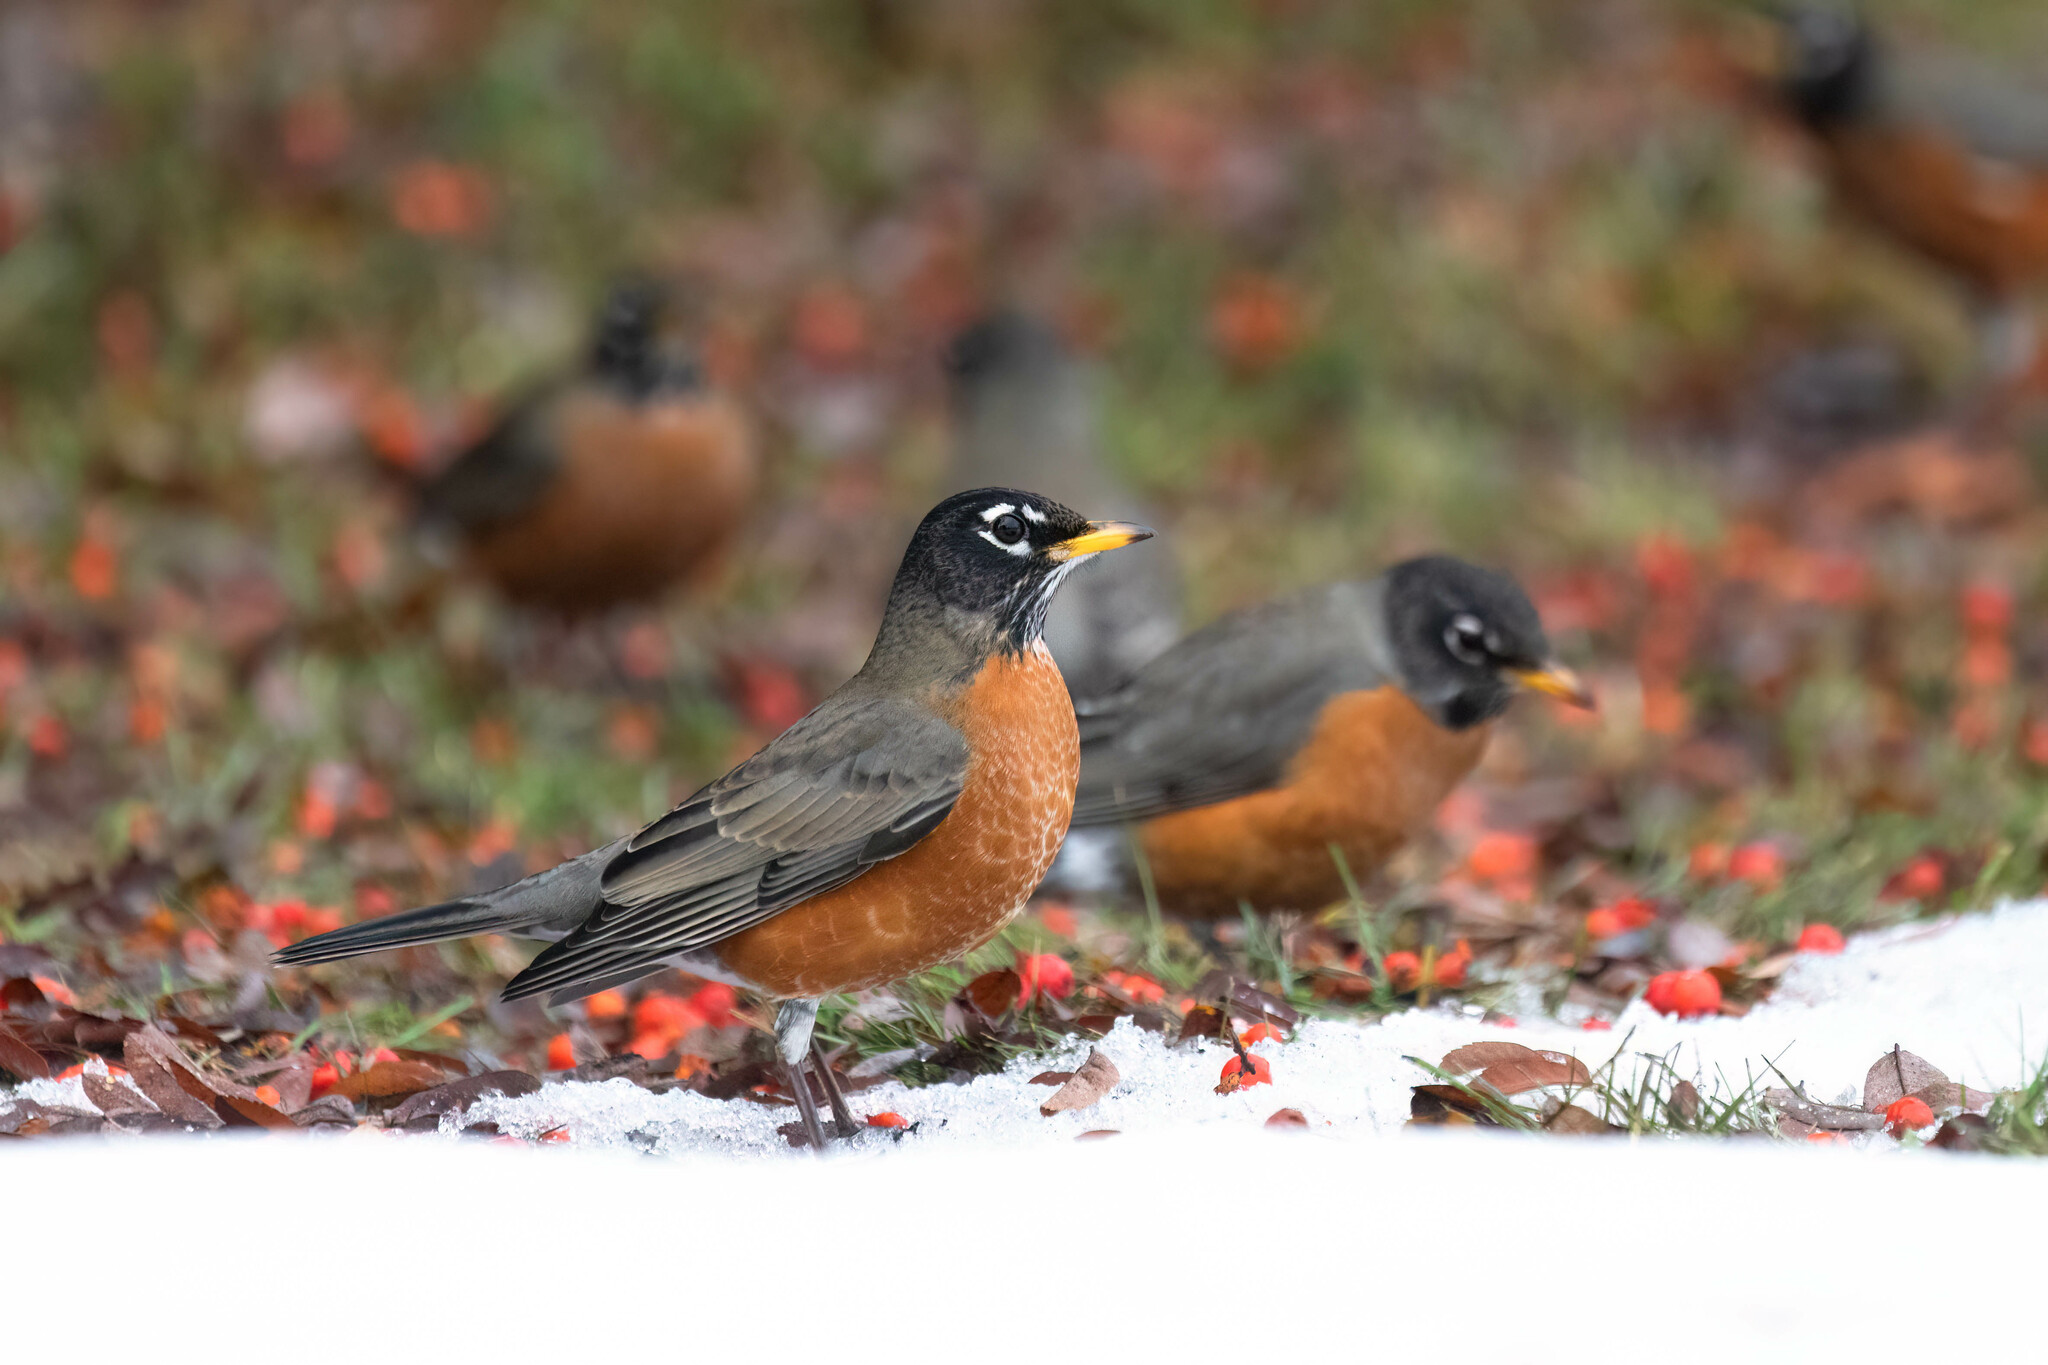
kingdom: Animalia
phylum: Chordata
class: Aves
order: Passeriformes
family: Turdidae
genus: Turdus
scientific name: Turdus migratorius
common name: American robin
